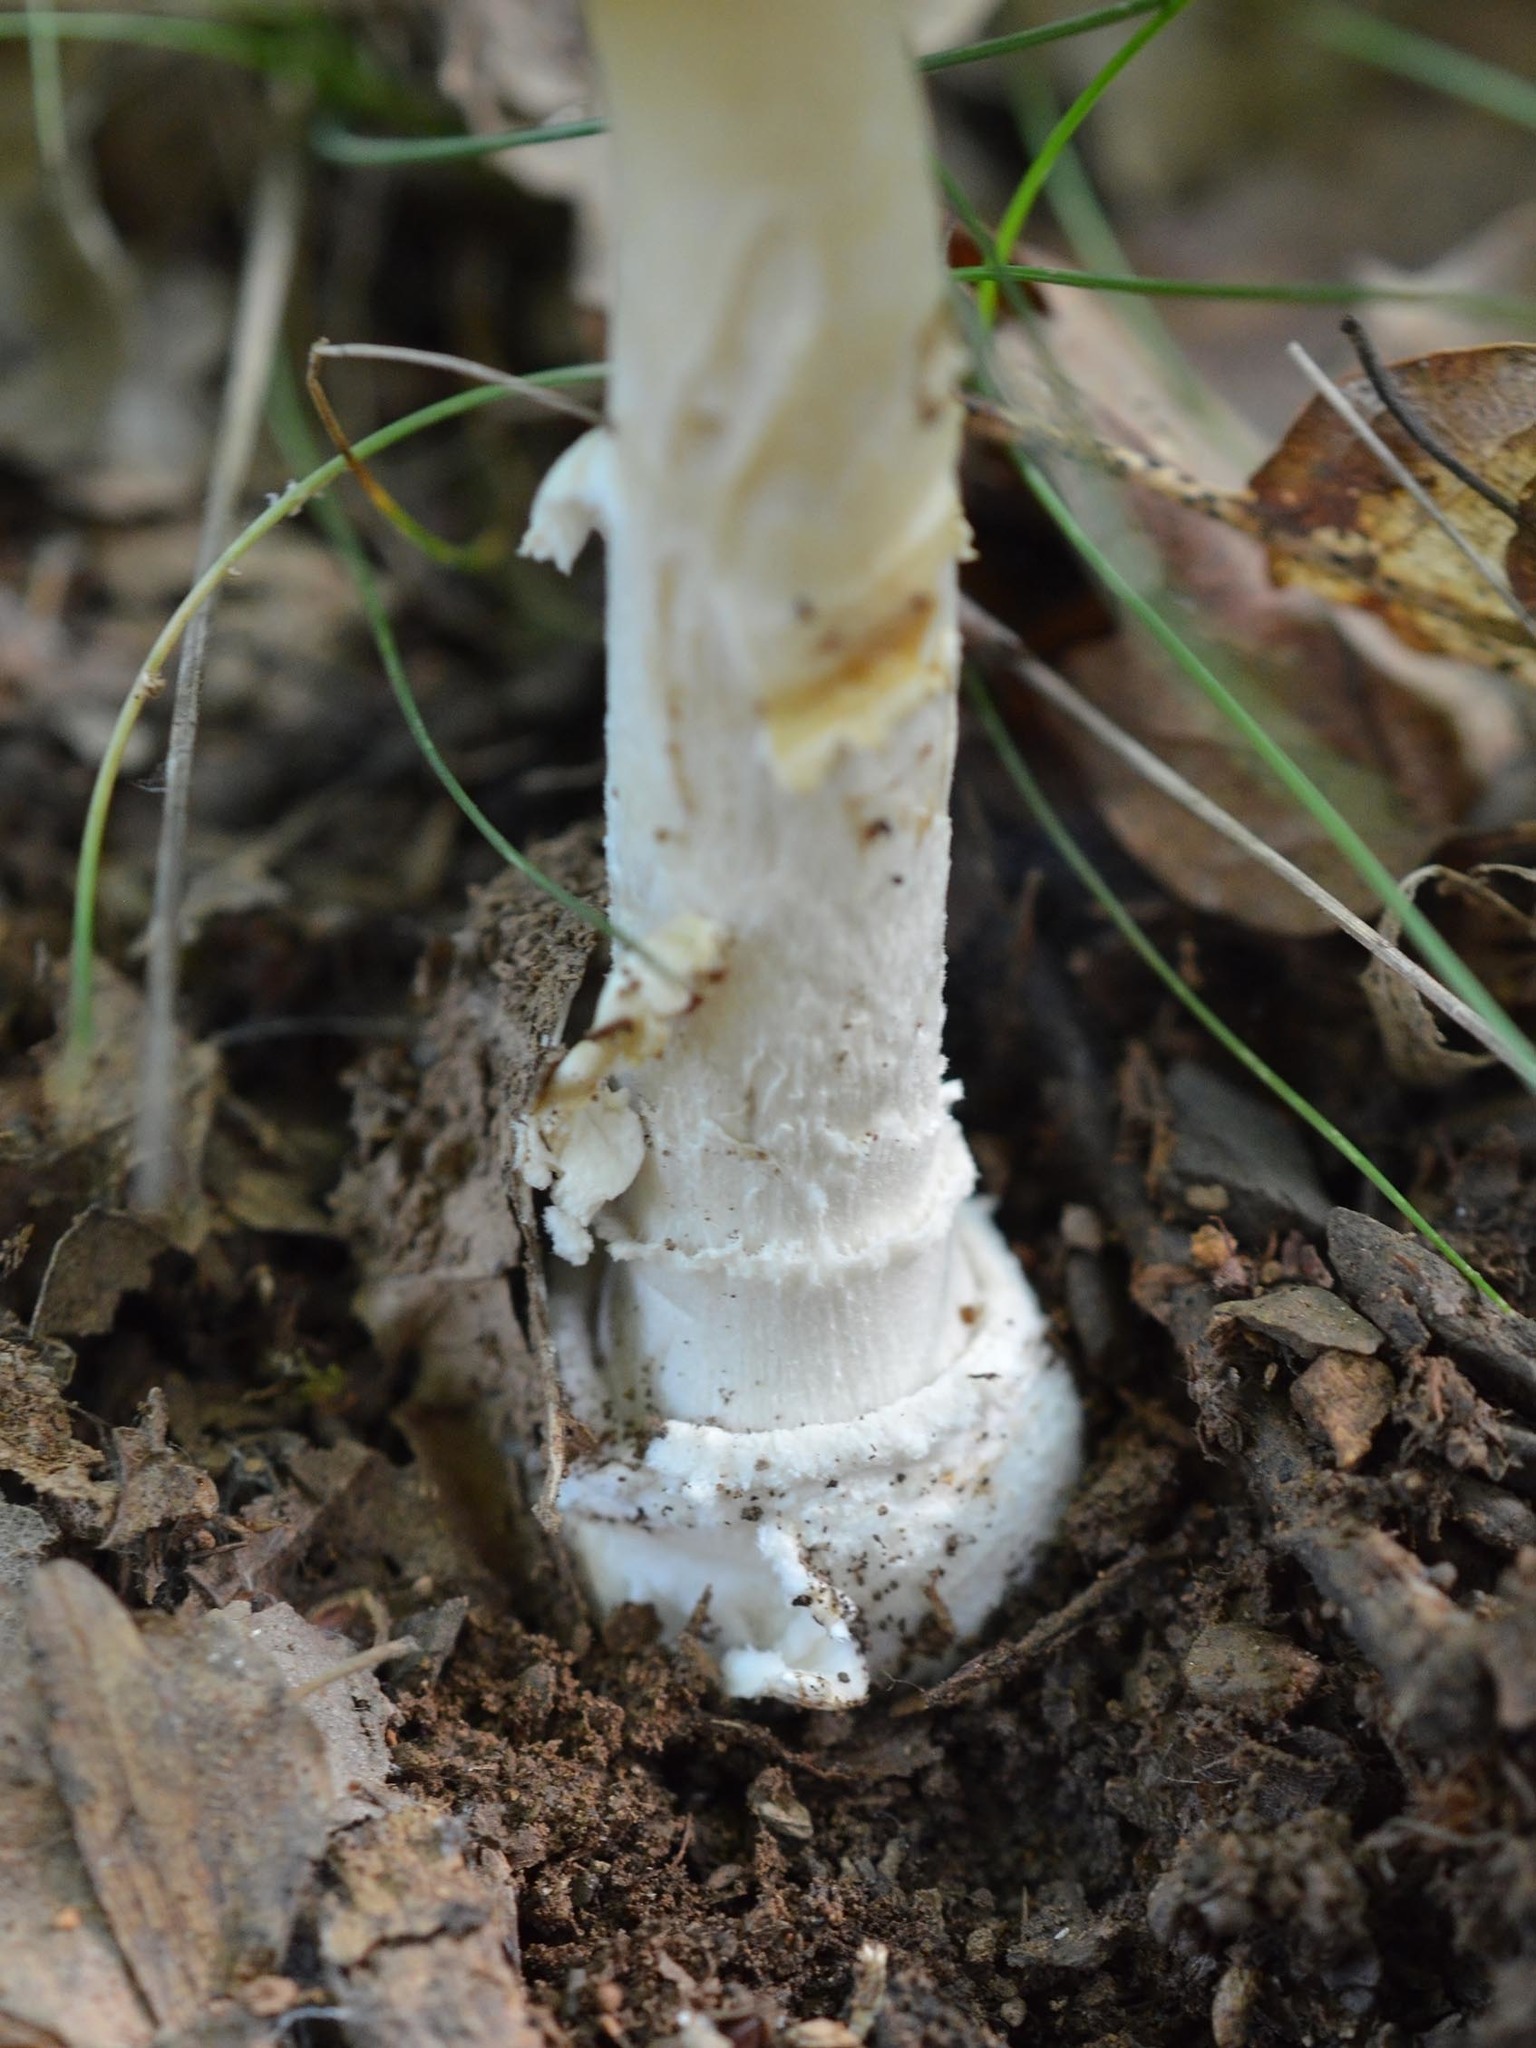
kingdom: Fungi
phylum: Basidiomycota
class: Agaricomycetes
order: Agaricales
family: Amanitaceae
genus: Amanita
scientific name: Amanita pantherina
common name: Panthercap
